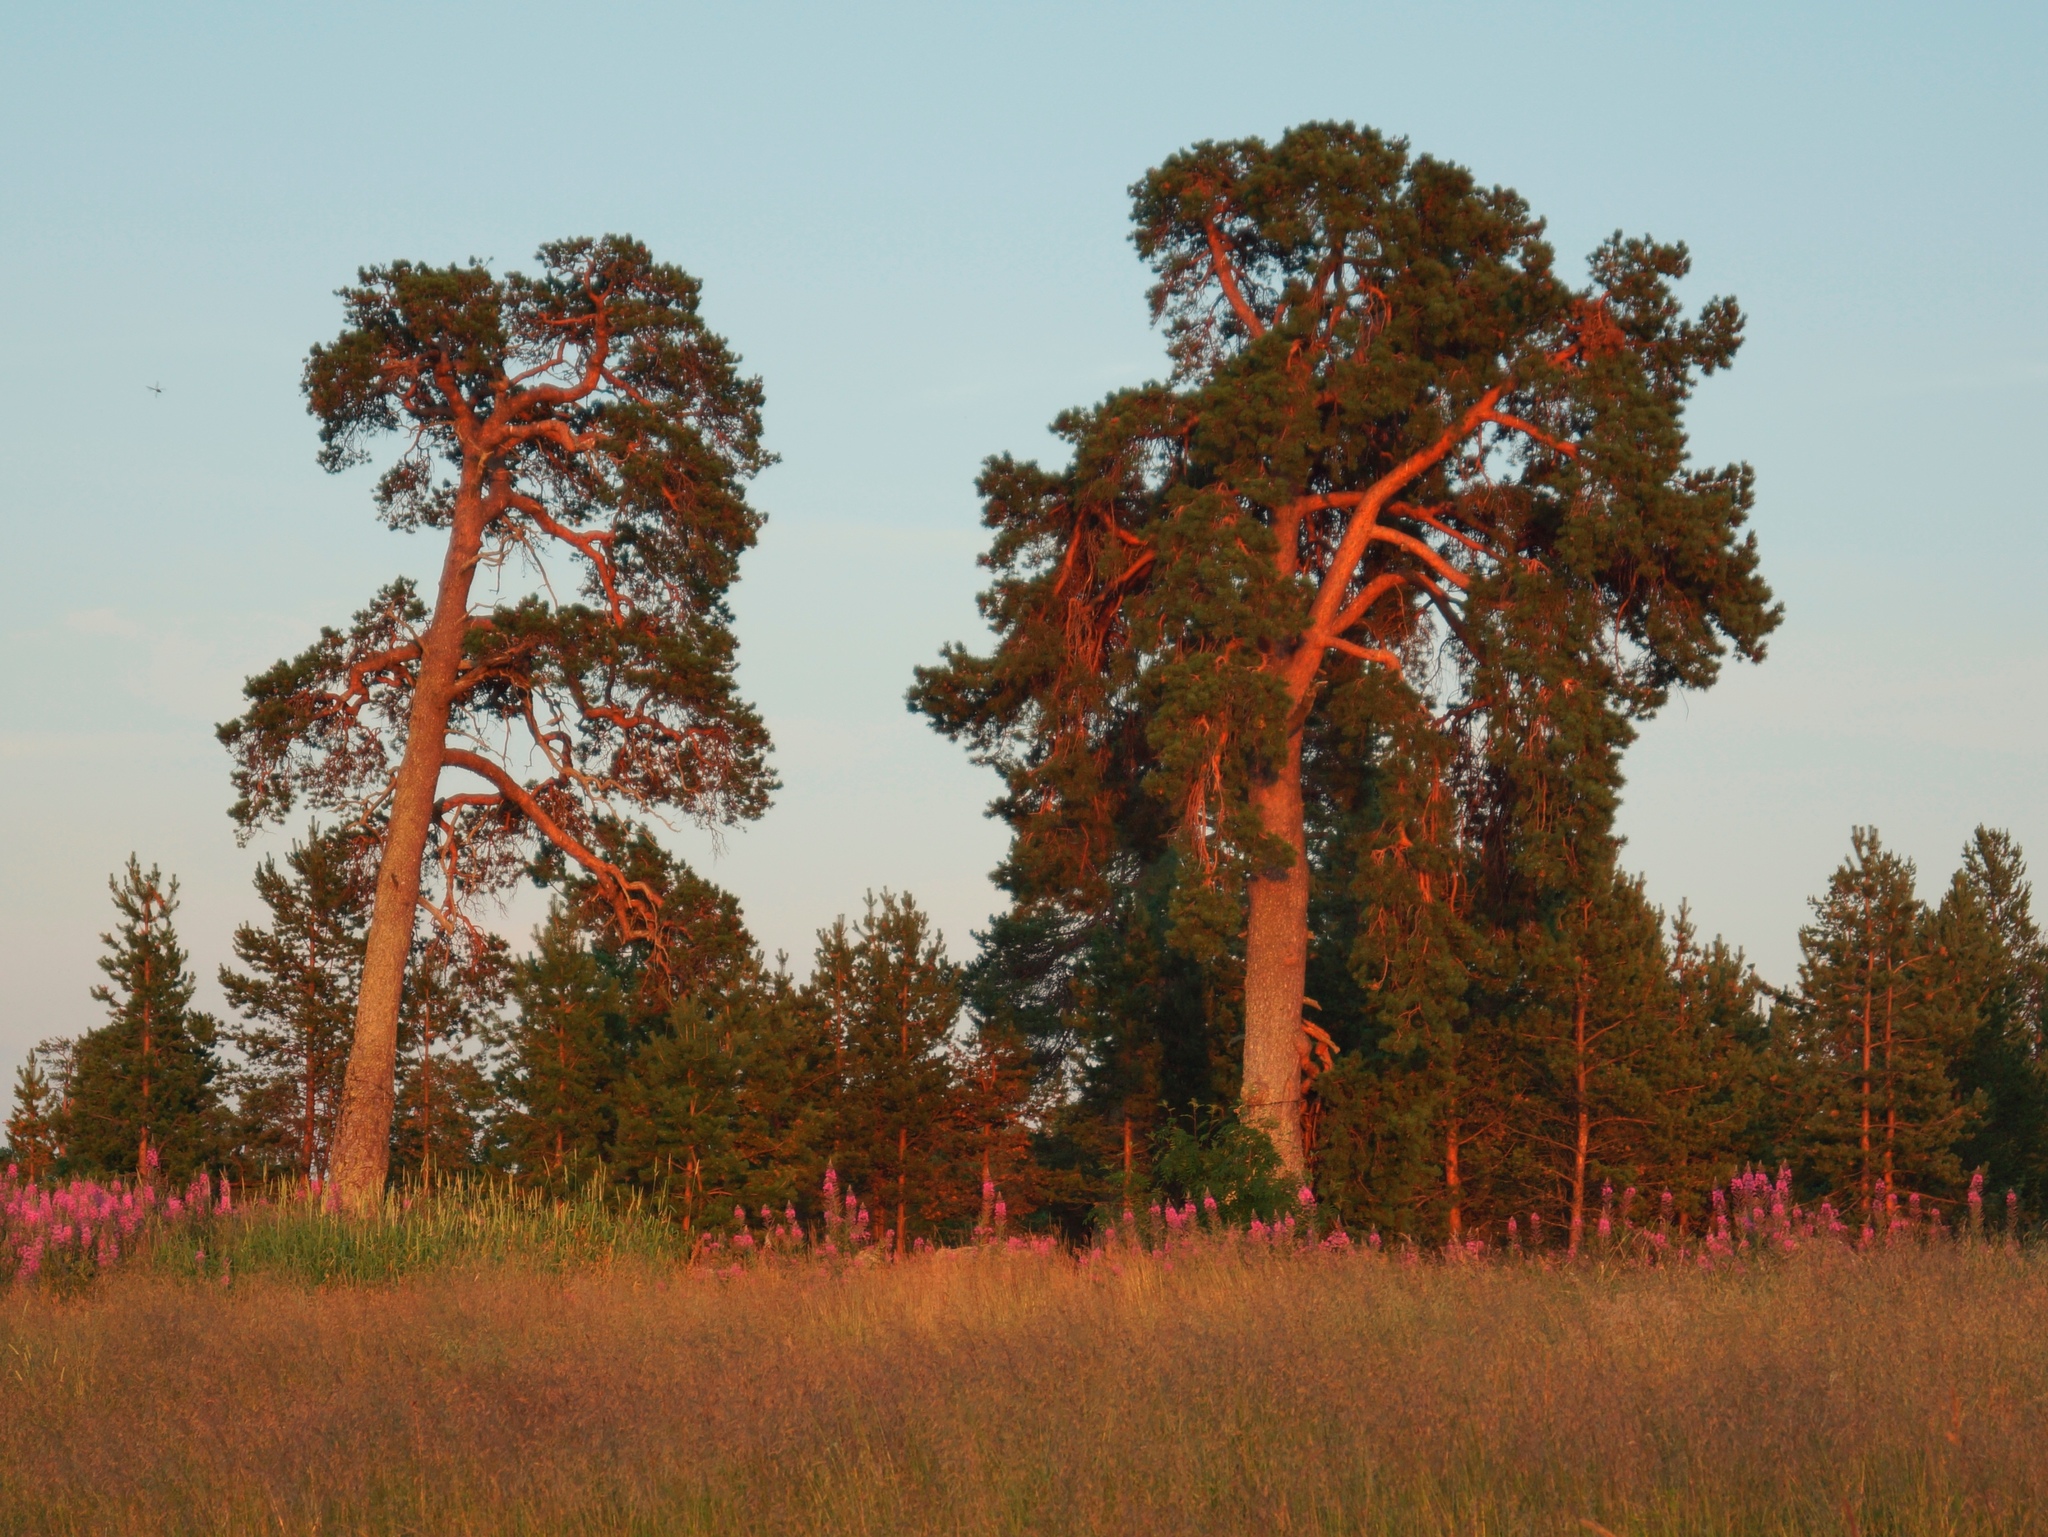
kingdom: Plantae
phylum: Tracheophyta
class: Pinopsida
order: Pinales
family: Pinaceae
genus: Pinus
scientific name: Pinus sylvestris
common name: Scots pine
